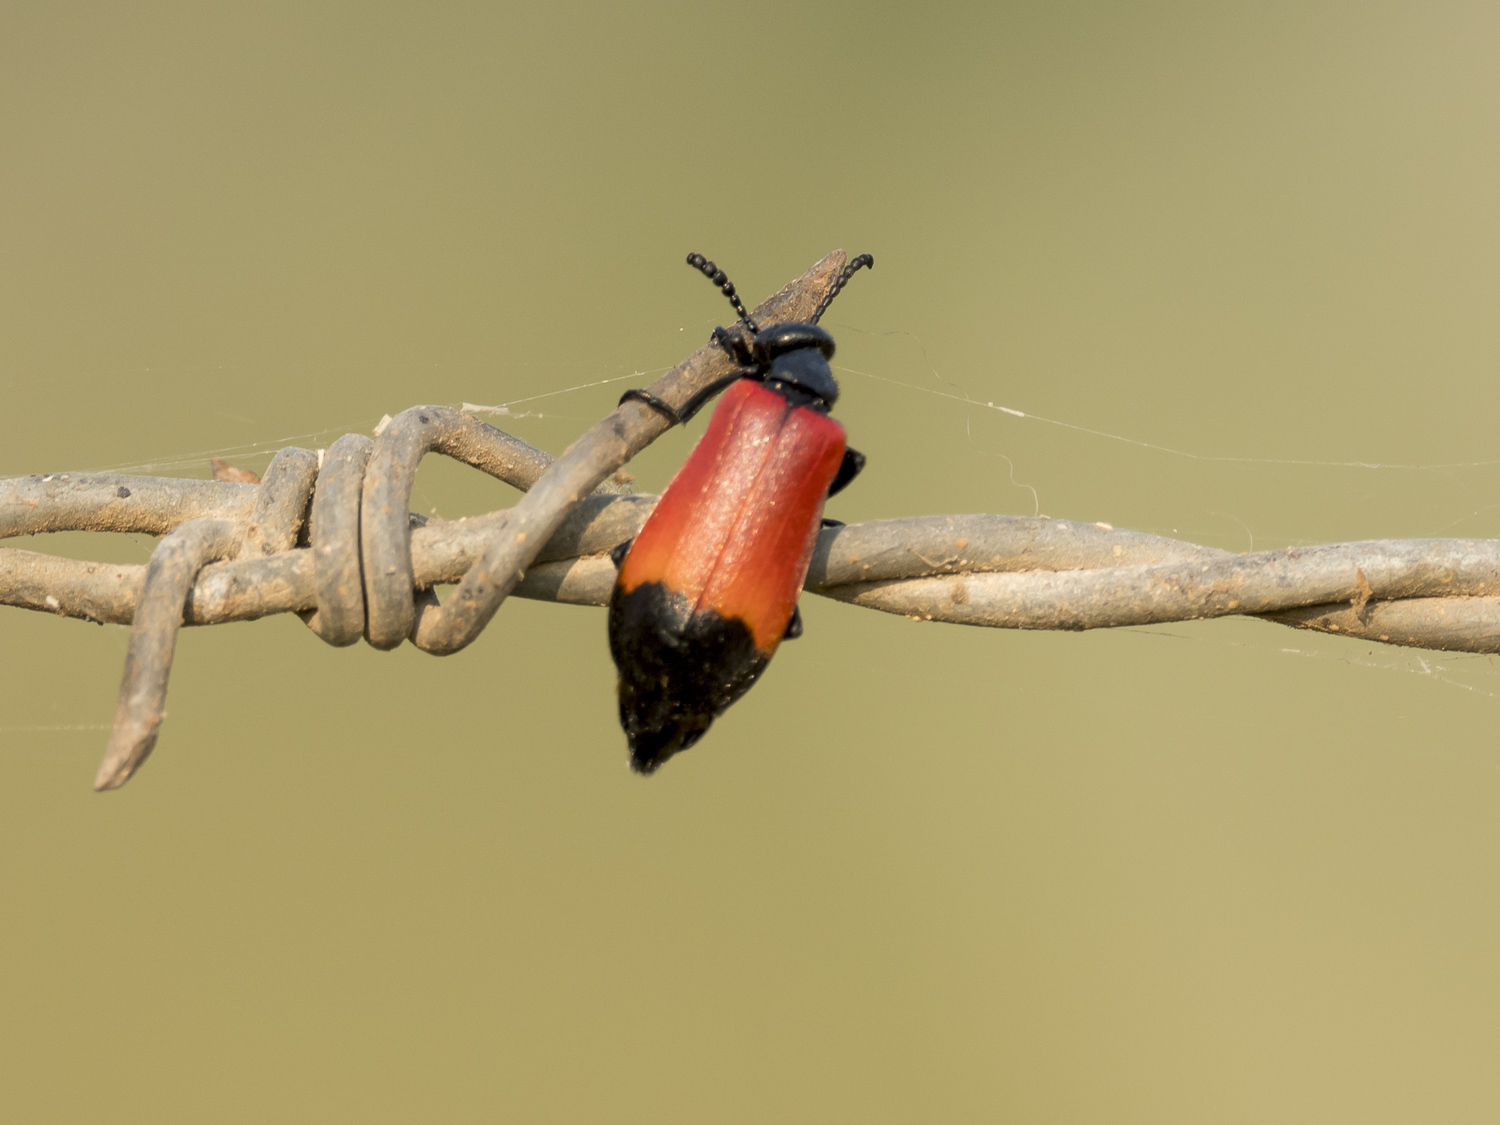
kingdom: Animalia
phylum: Arthropoda
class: Insecta
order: Coleoptera
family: Meloidae
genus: Lytta
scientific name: Lytta
